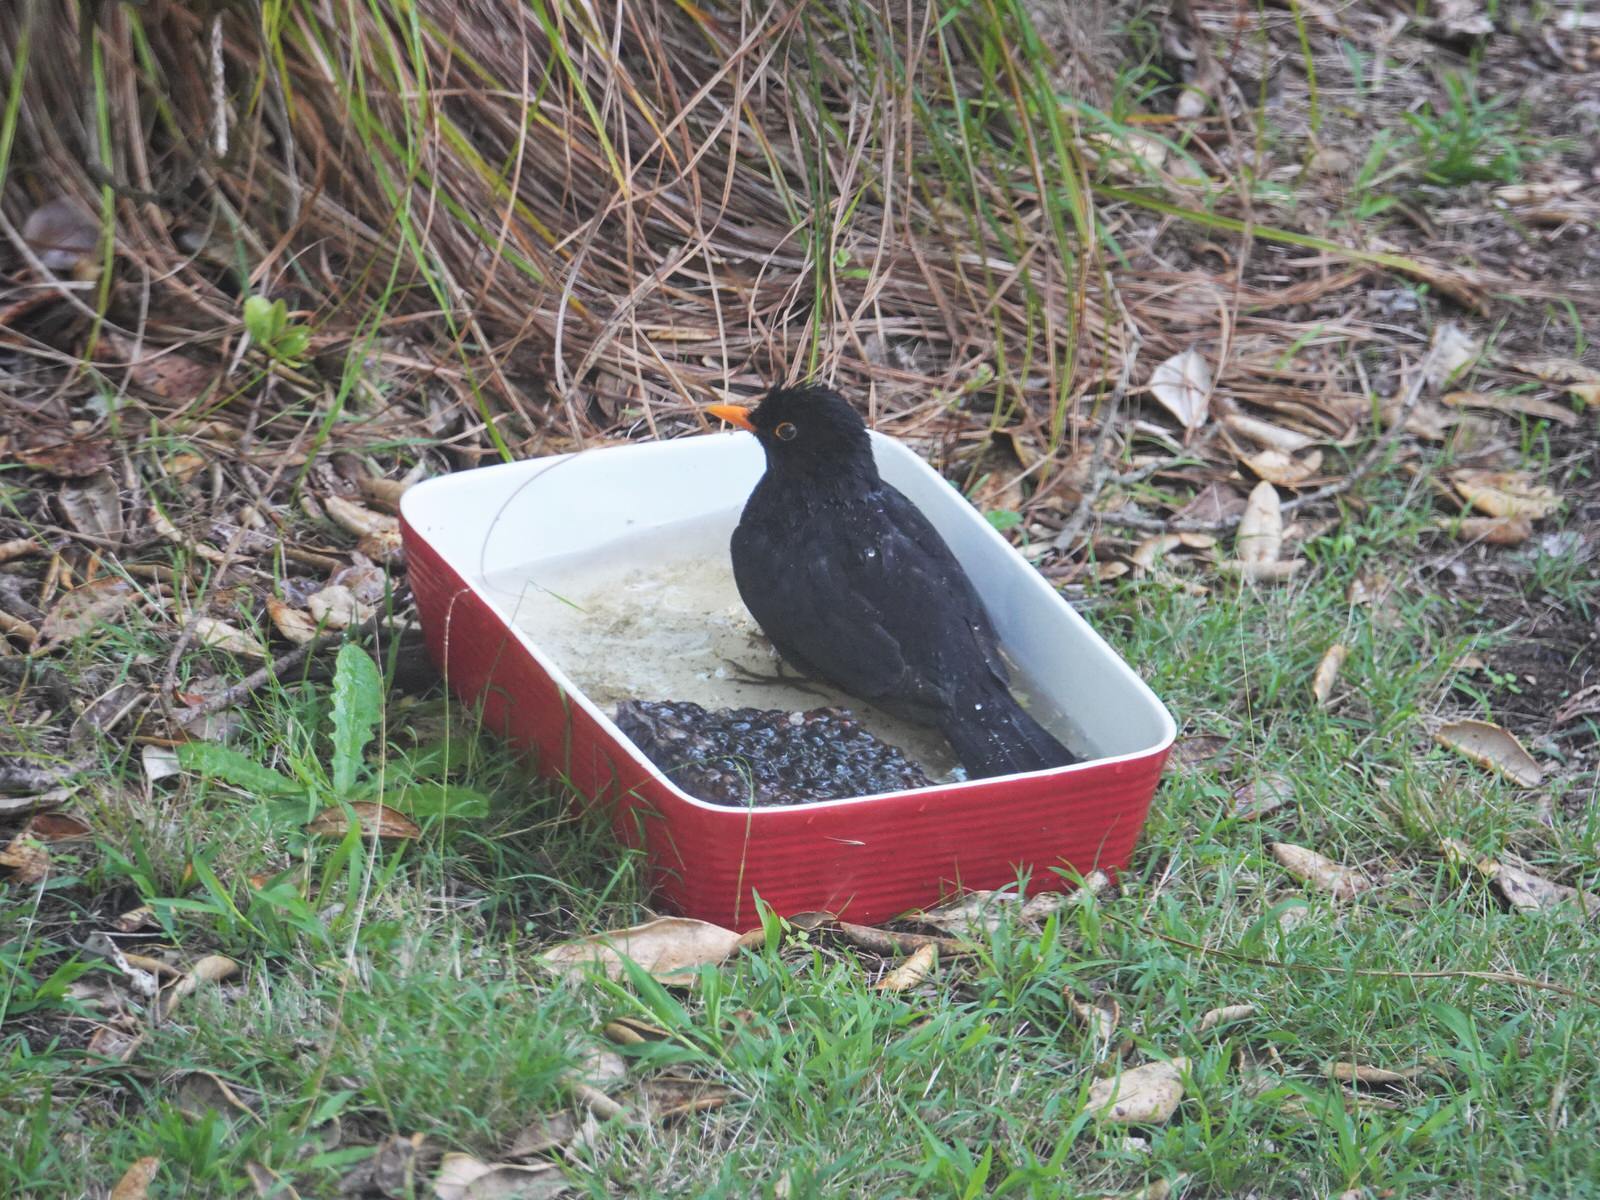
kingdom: Animalia
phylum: Chordata
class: Aves
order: Passeriformes
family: Turdidae
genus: Turdus
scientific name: Turdus merula
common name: Common blackbird
